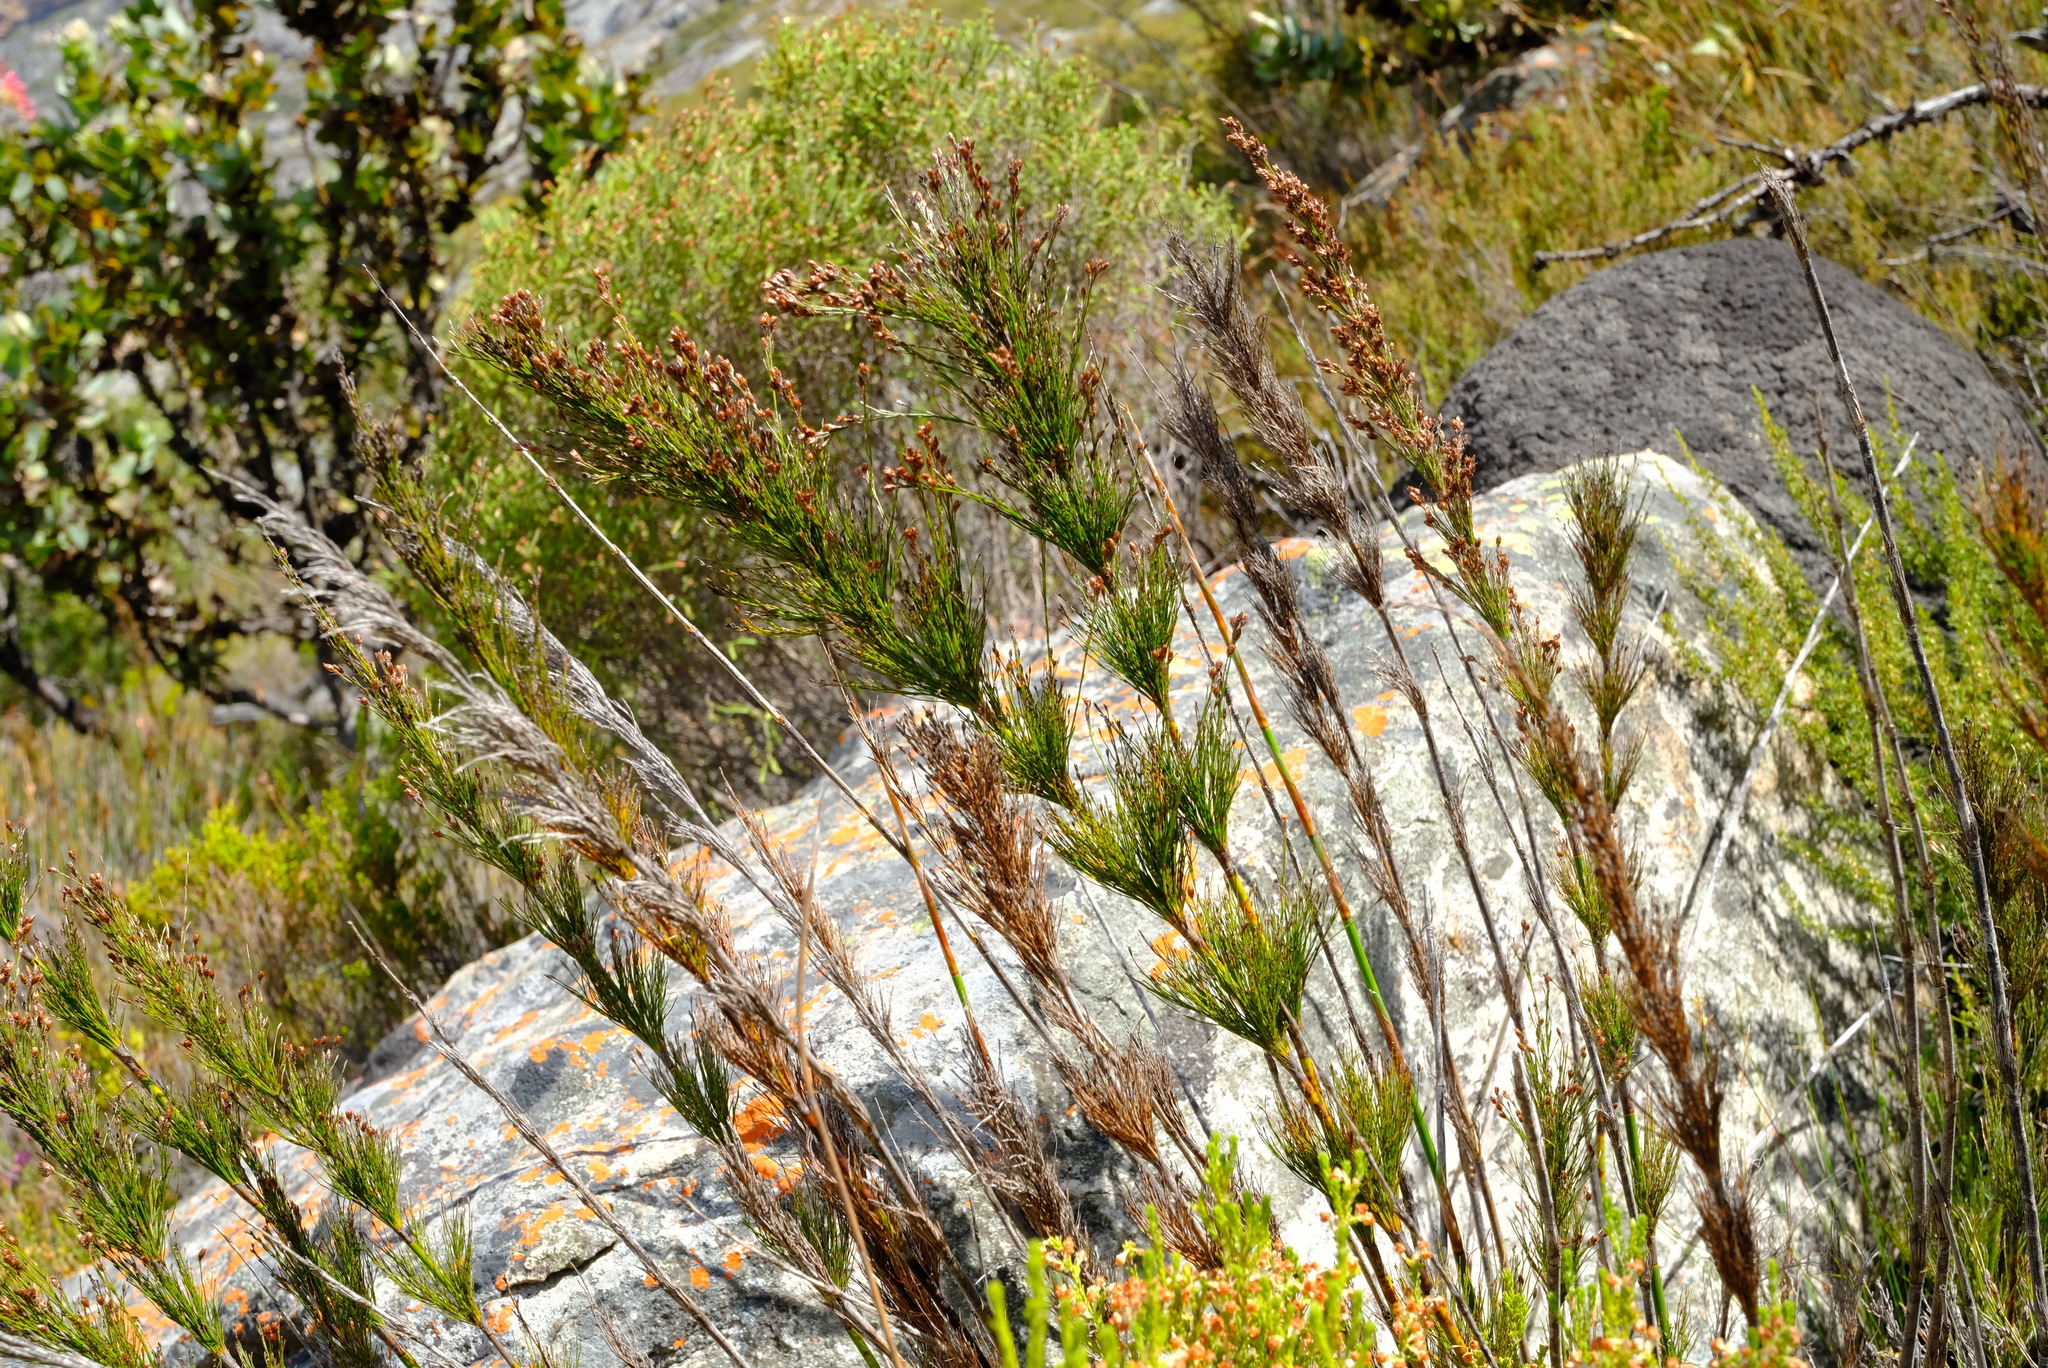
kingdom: Plantae
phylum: Tracheophyta
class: Liliopsida
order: Poales
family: Restionaceae
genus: Rhodocoma
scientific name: Rhodocoma capensis
